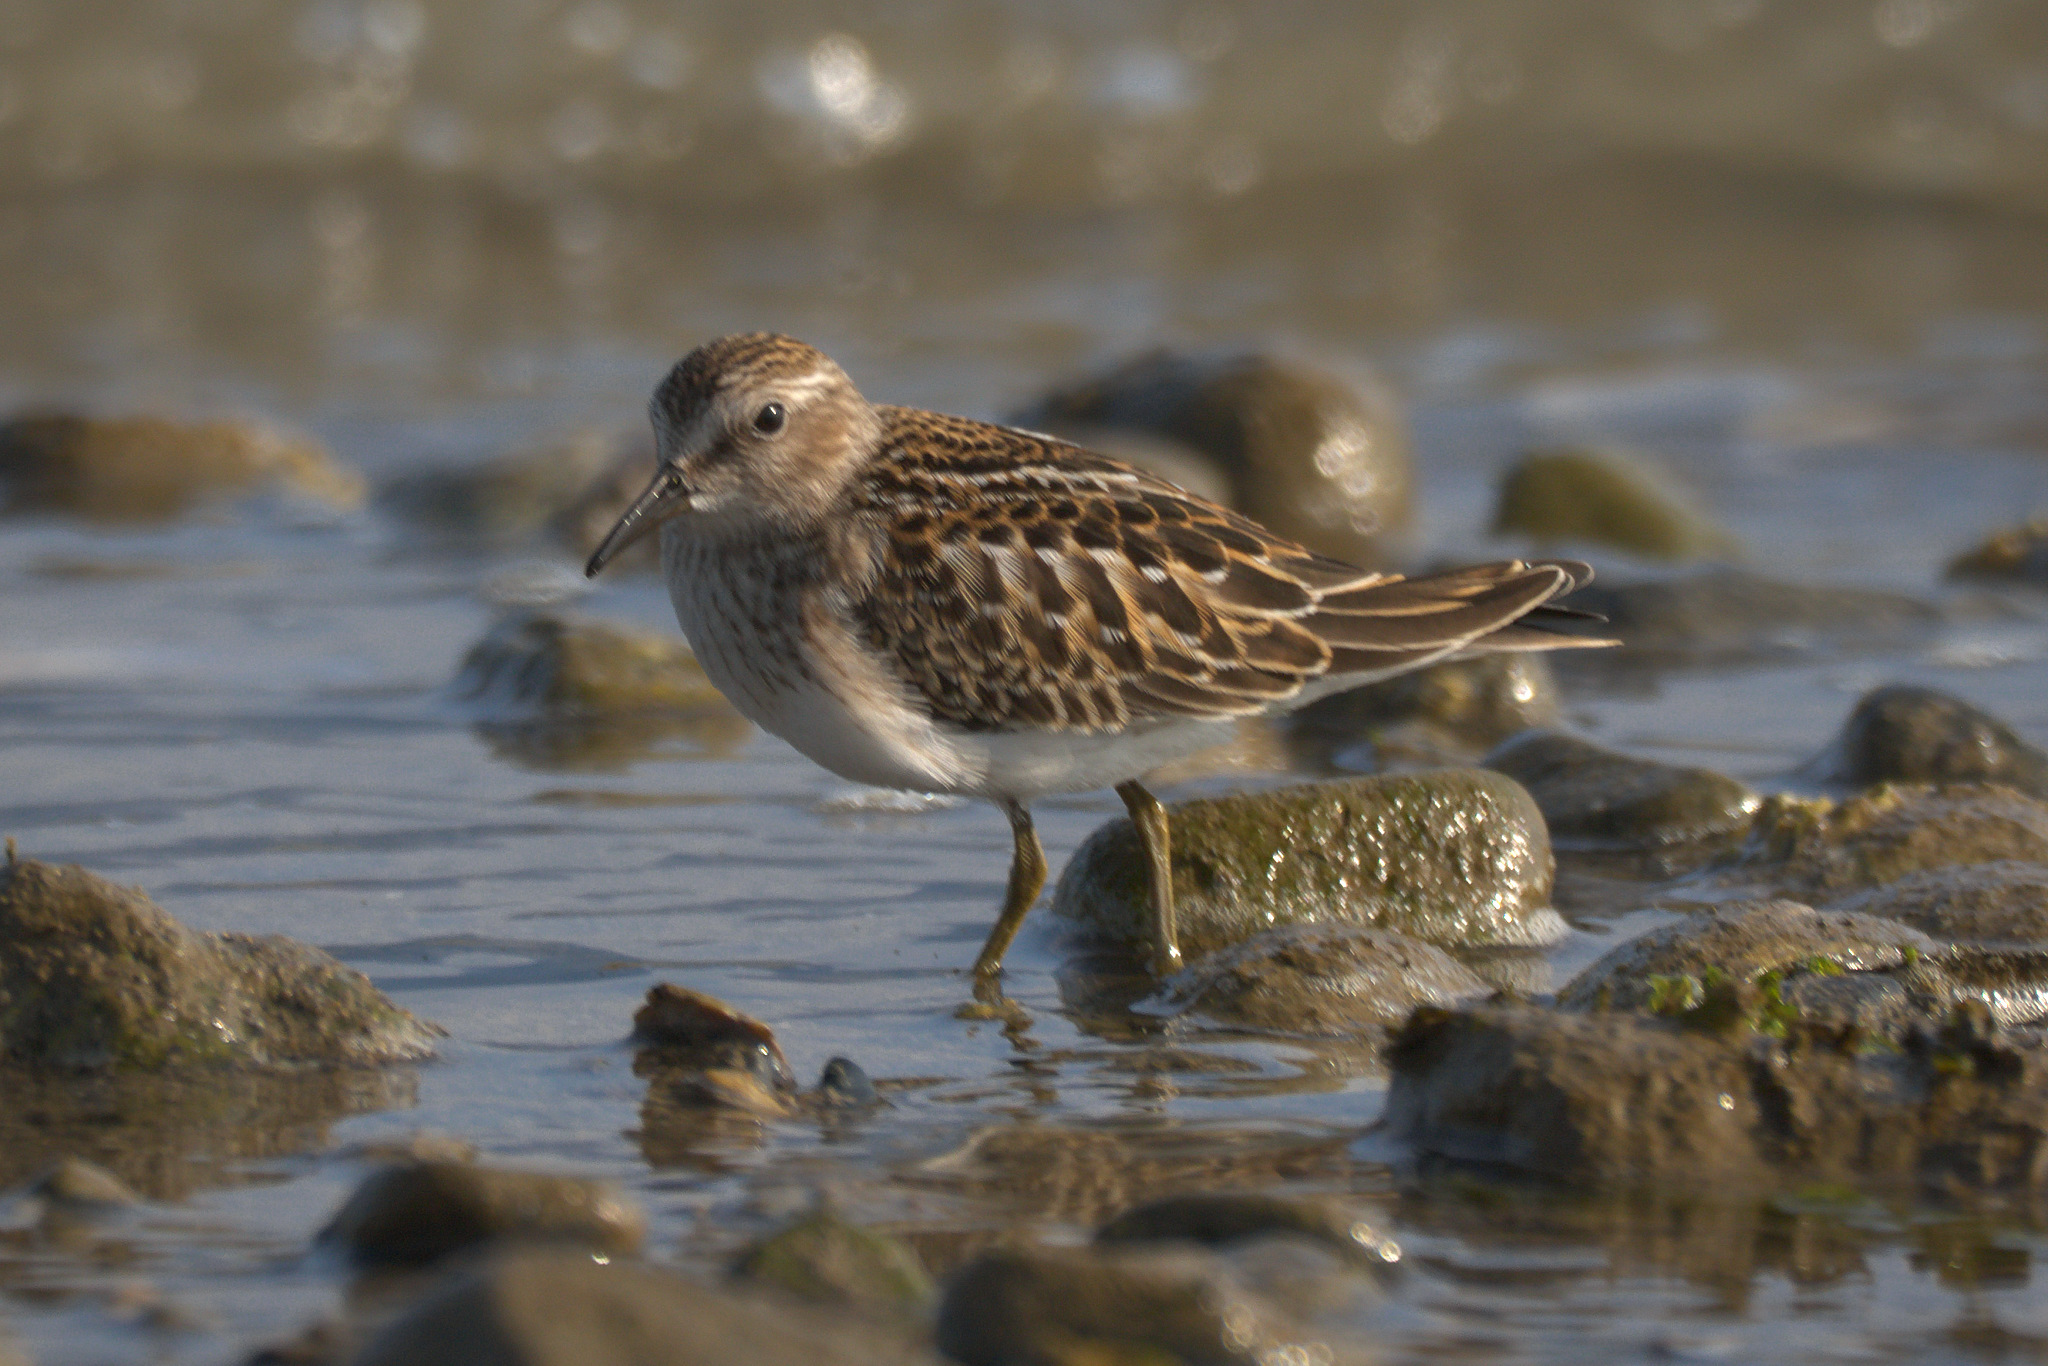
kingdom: Animalia
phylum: Chordata
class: Aves
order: Charadriiformes
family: Scolopacidae
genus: Calidris
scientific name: Calidris minutilla
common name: Least sandpiper
